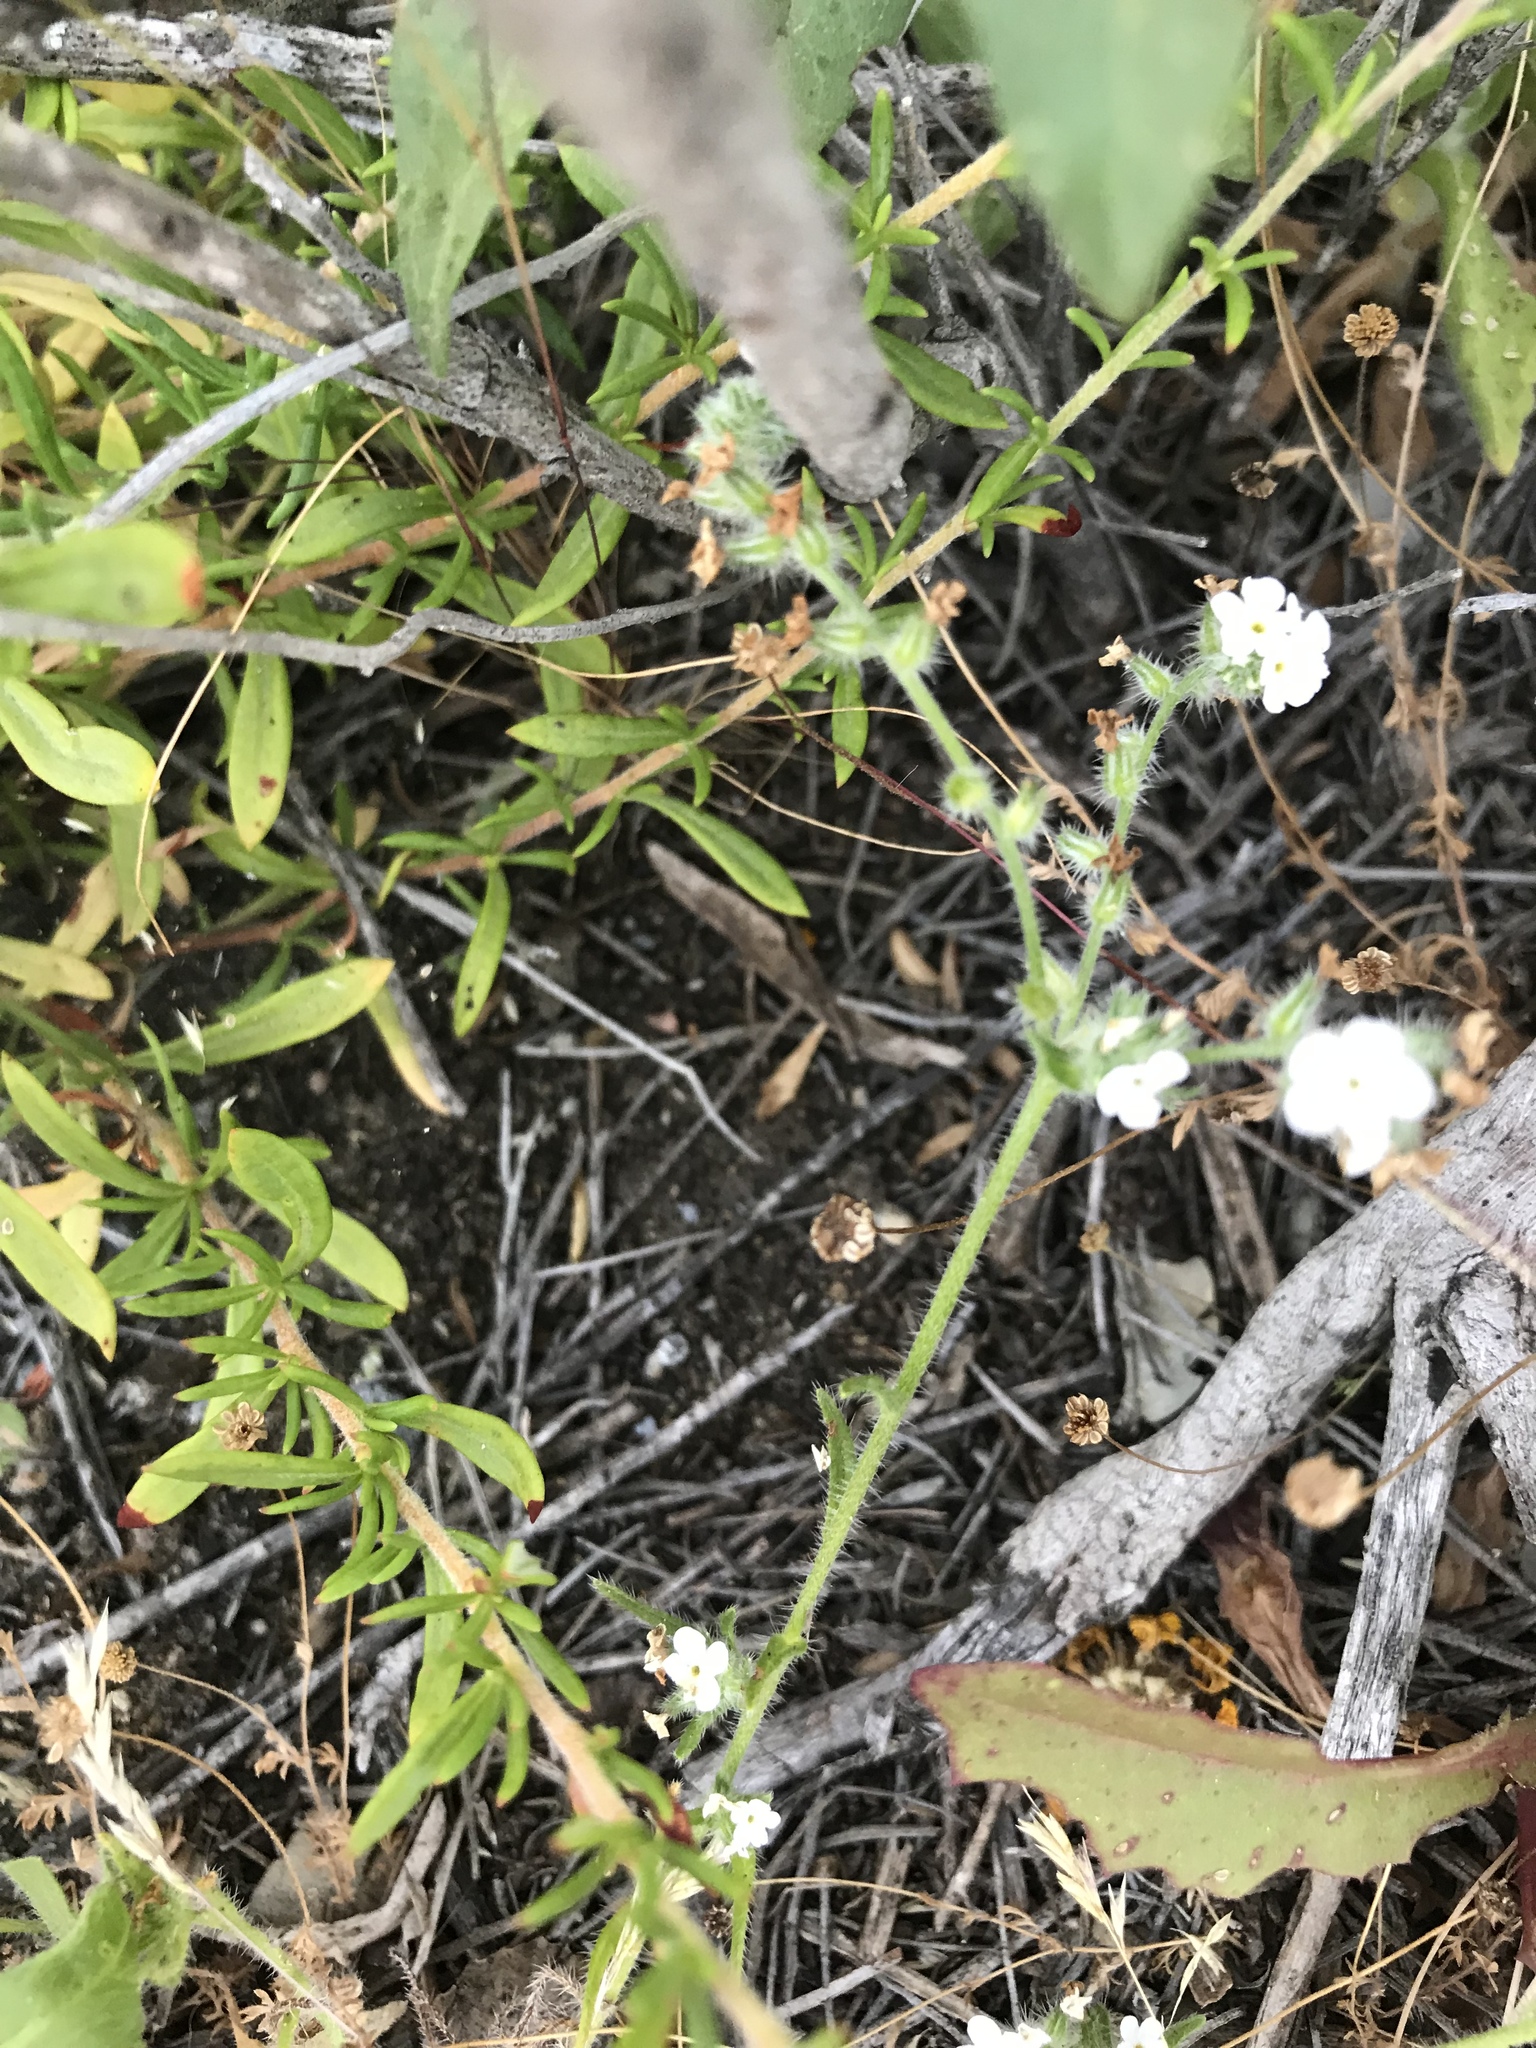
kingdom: Plantae
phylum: Tracheophyta
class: Magnoliopsida
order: Boraginales
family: Boraginaceae
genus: Cryptantha
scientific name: Cryptantha intermedia
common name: Clearwater cryptantha
